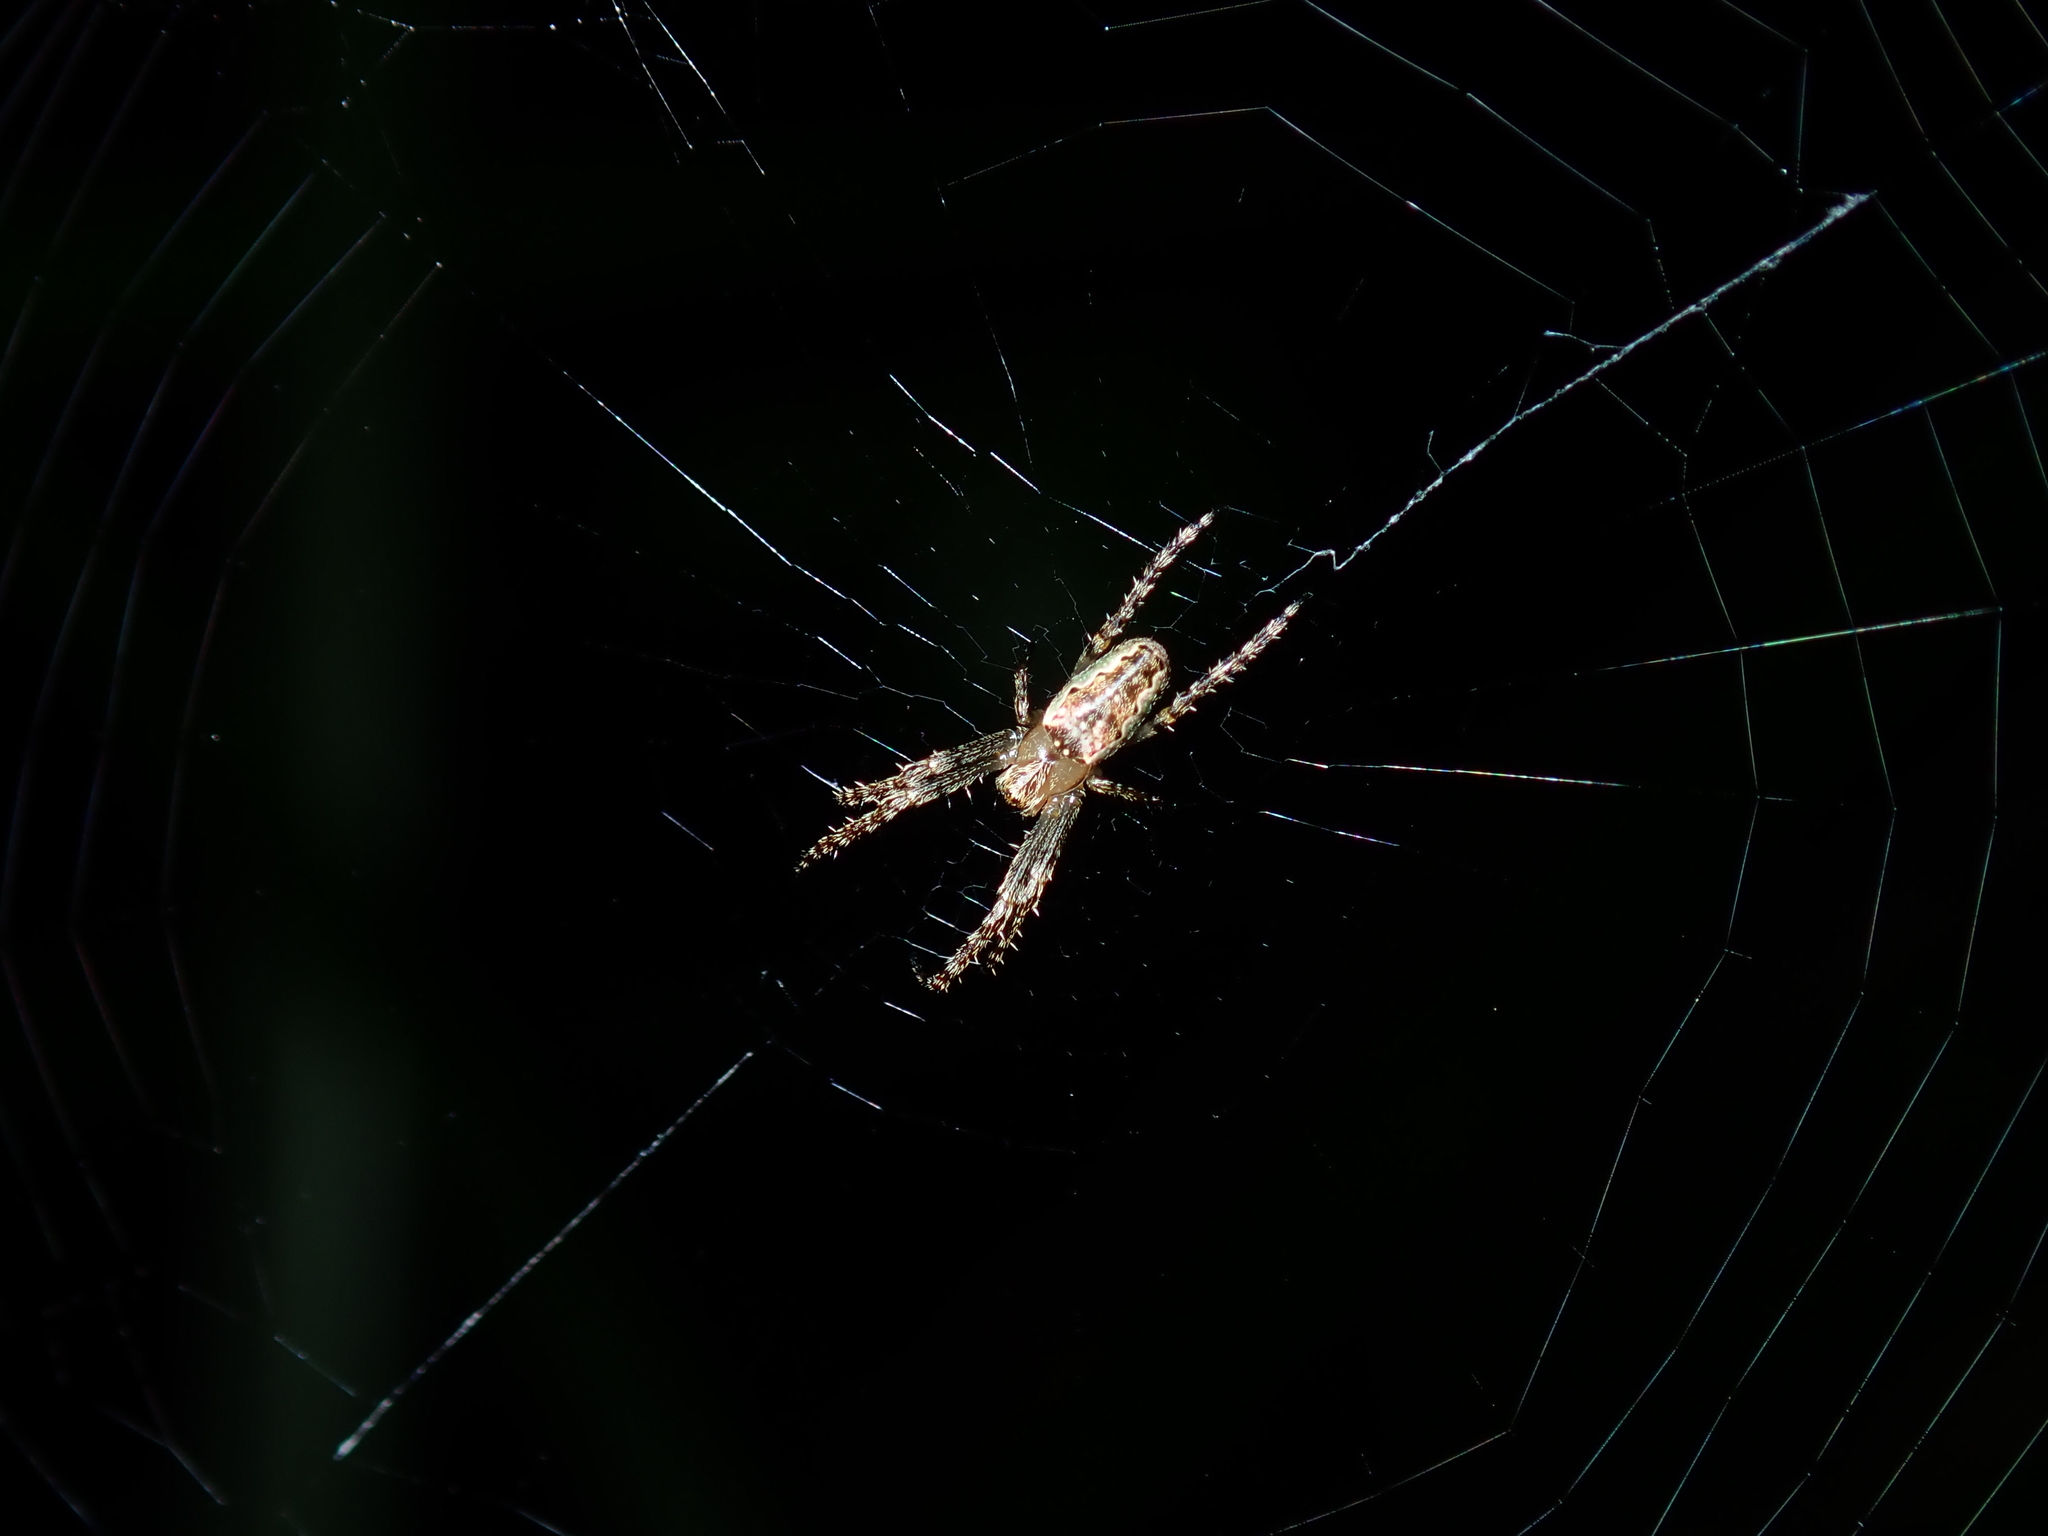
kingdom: Animalia
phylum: Arthropoda
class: Arachnida
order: Araneae
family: Araneidae
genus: Plebs
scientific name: Plebs eburnus
